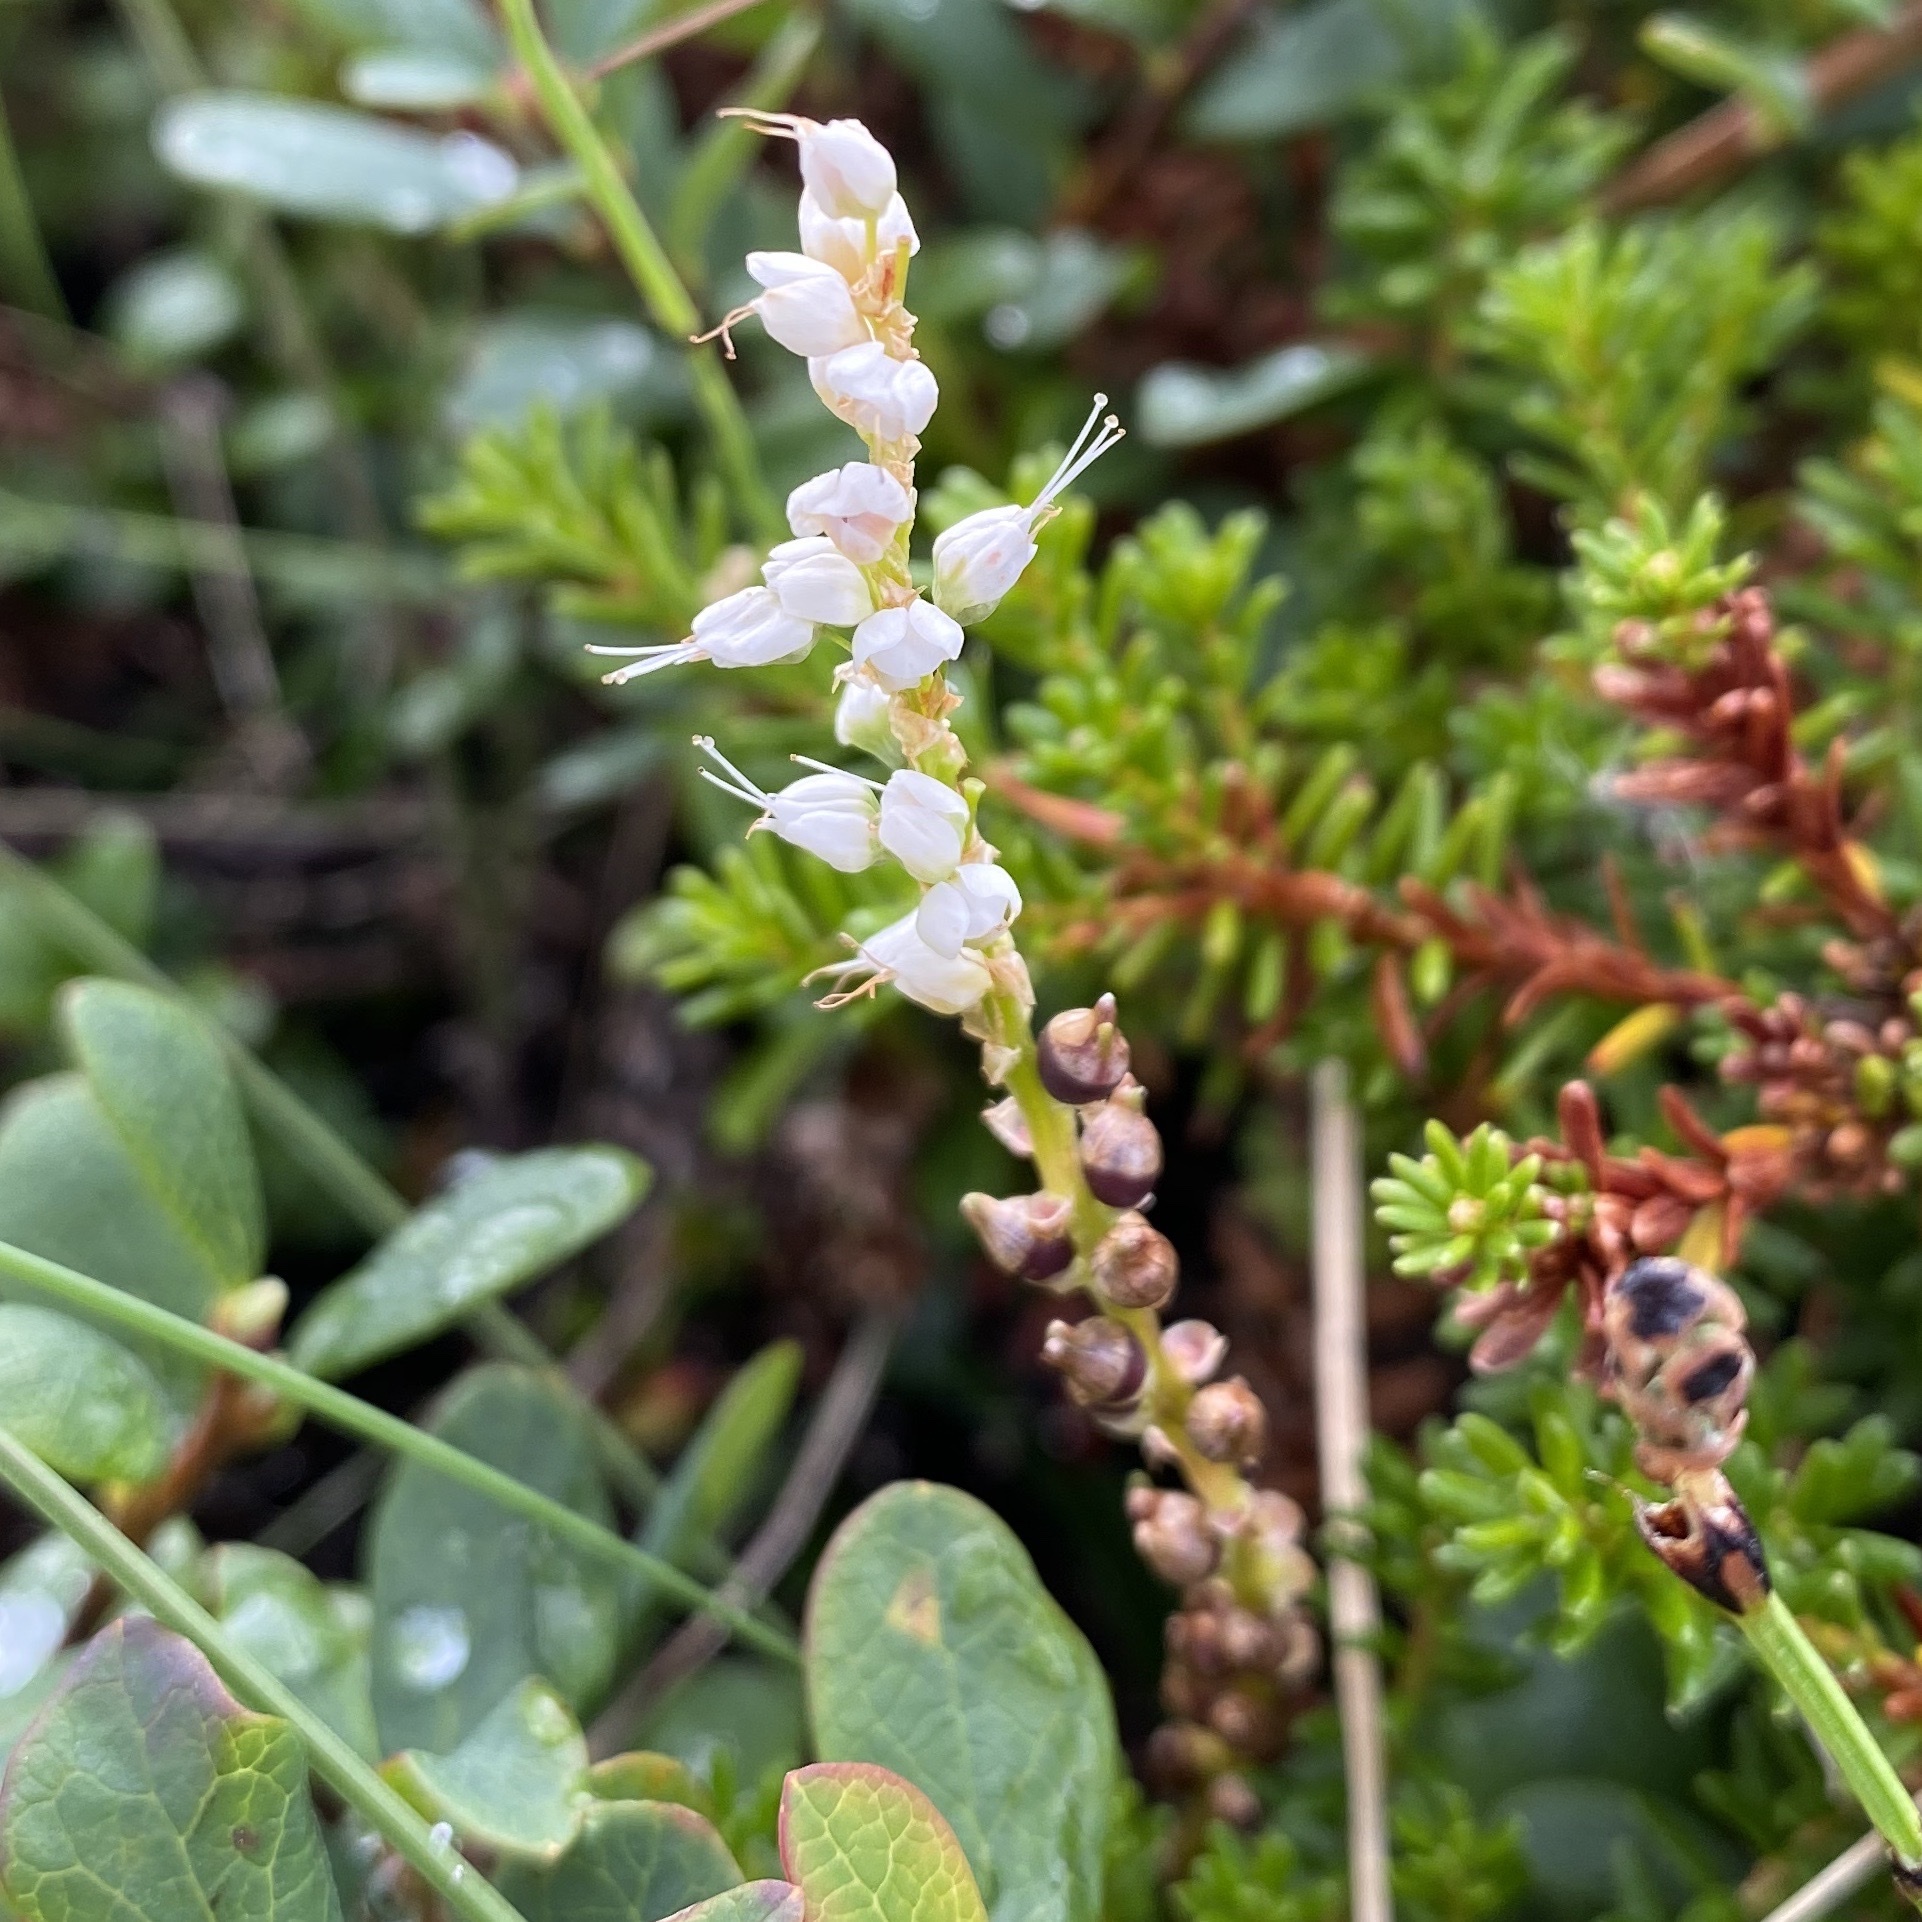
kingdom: Plantae
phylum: Tracheophyta
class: Magnoliopsida
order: Caryophyllales
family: Polygonaceae
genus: Bistorta
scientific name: Bistorta vivipara
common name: Alpine bistort
